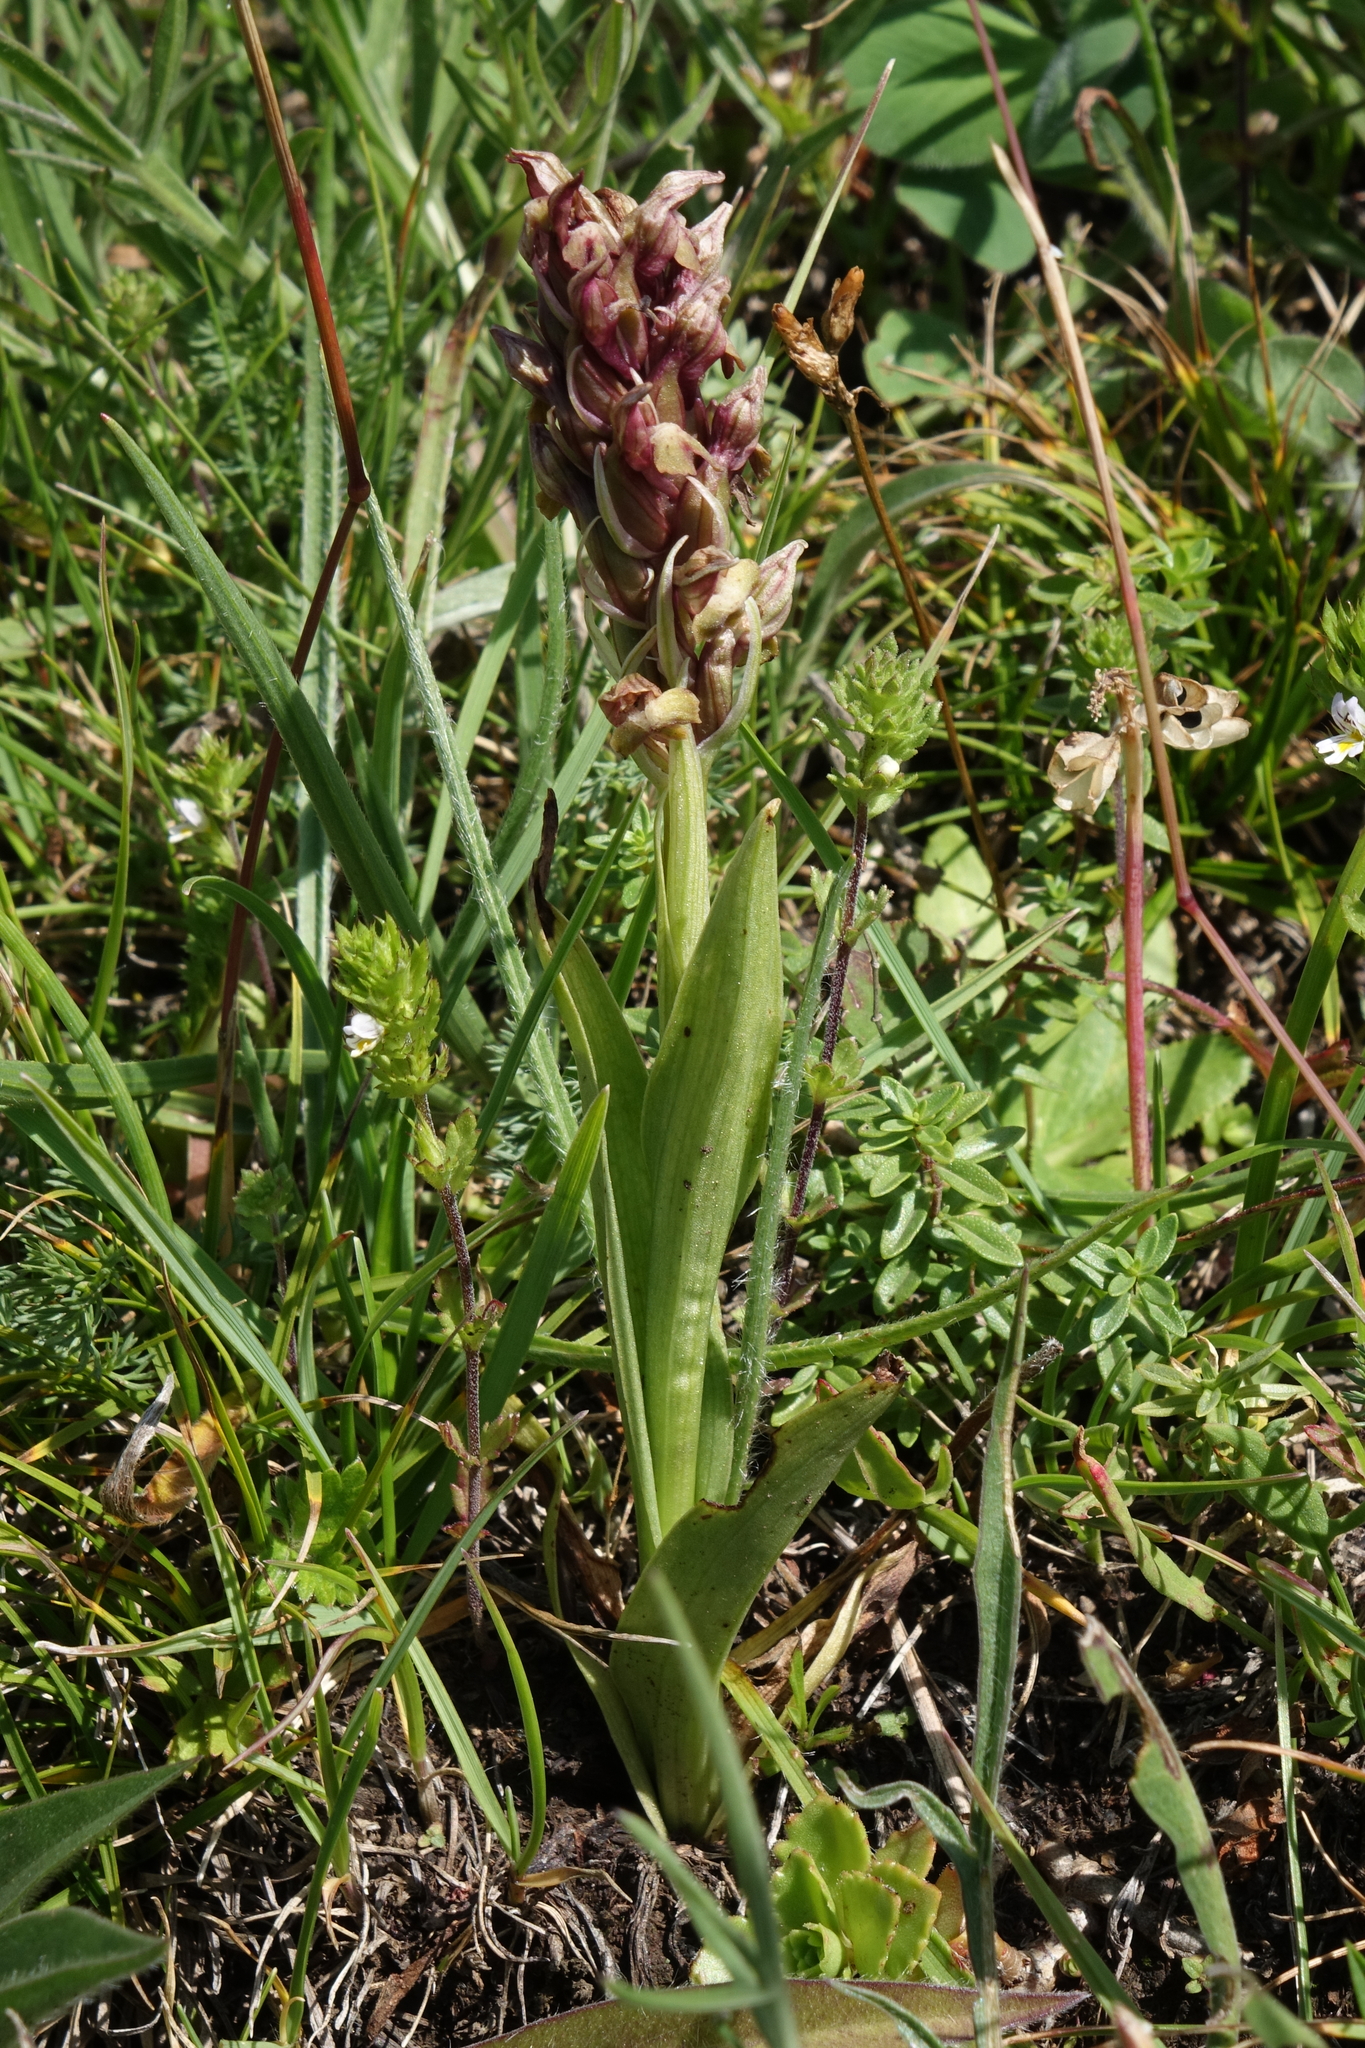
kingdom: Plantae
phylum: Tracheophyta
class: Liliopsida
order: Asparagales
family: Orchidaceae
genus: Anacamptis
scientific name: Anacamptis coriophora
